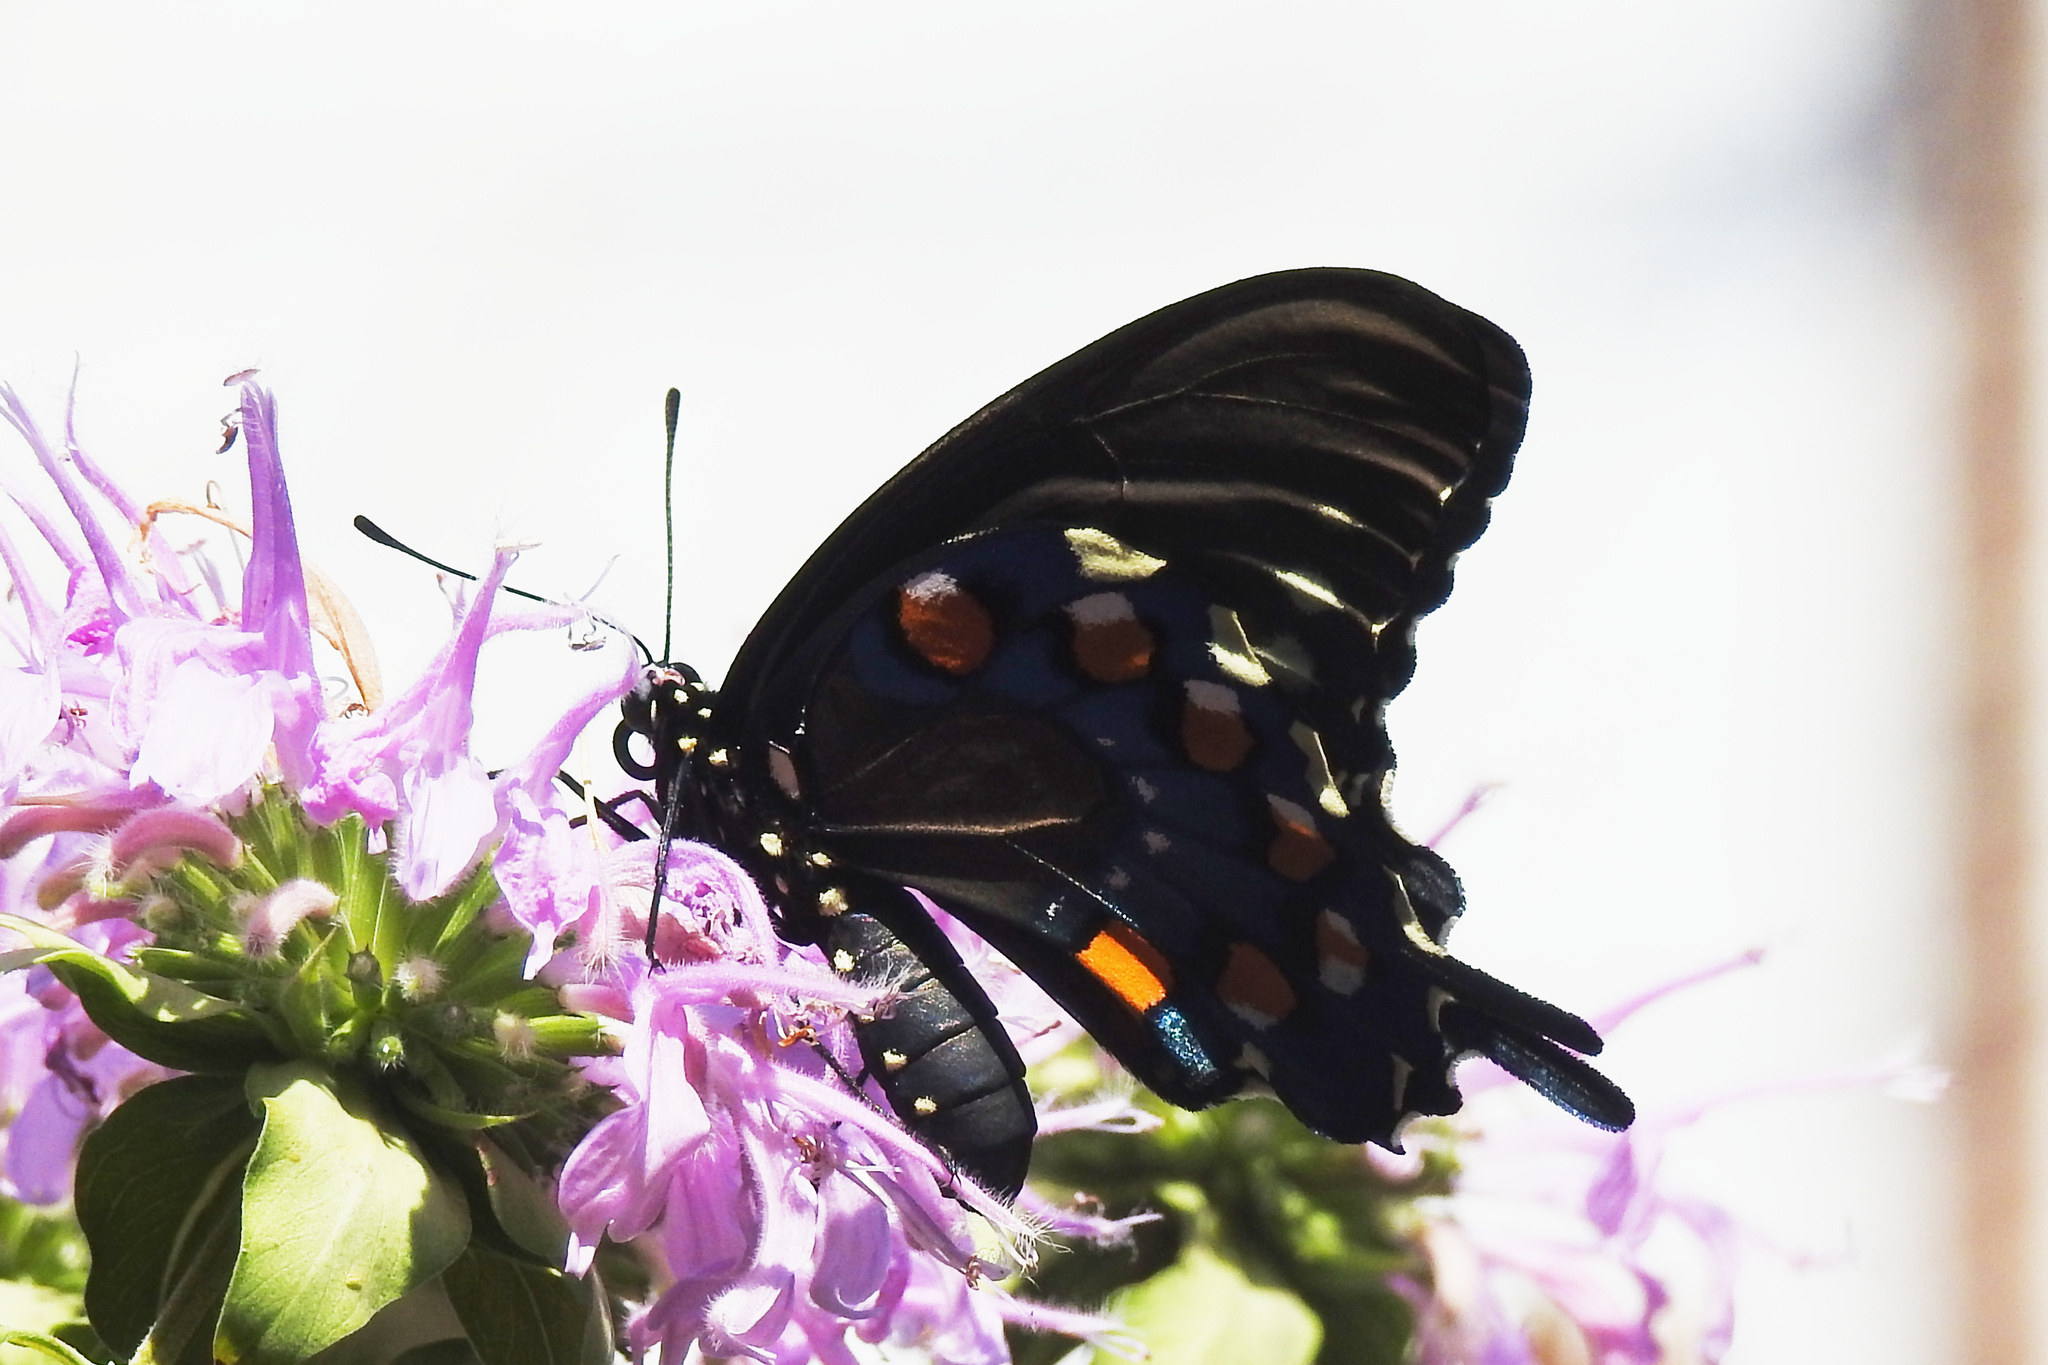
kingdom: Animalia
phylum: Arthropoda
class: Insecta
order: Lepidoptera
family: Papilionidae
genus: Battus
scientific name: Battus philenor
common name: Pipevine swallowtail
